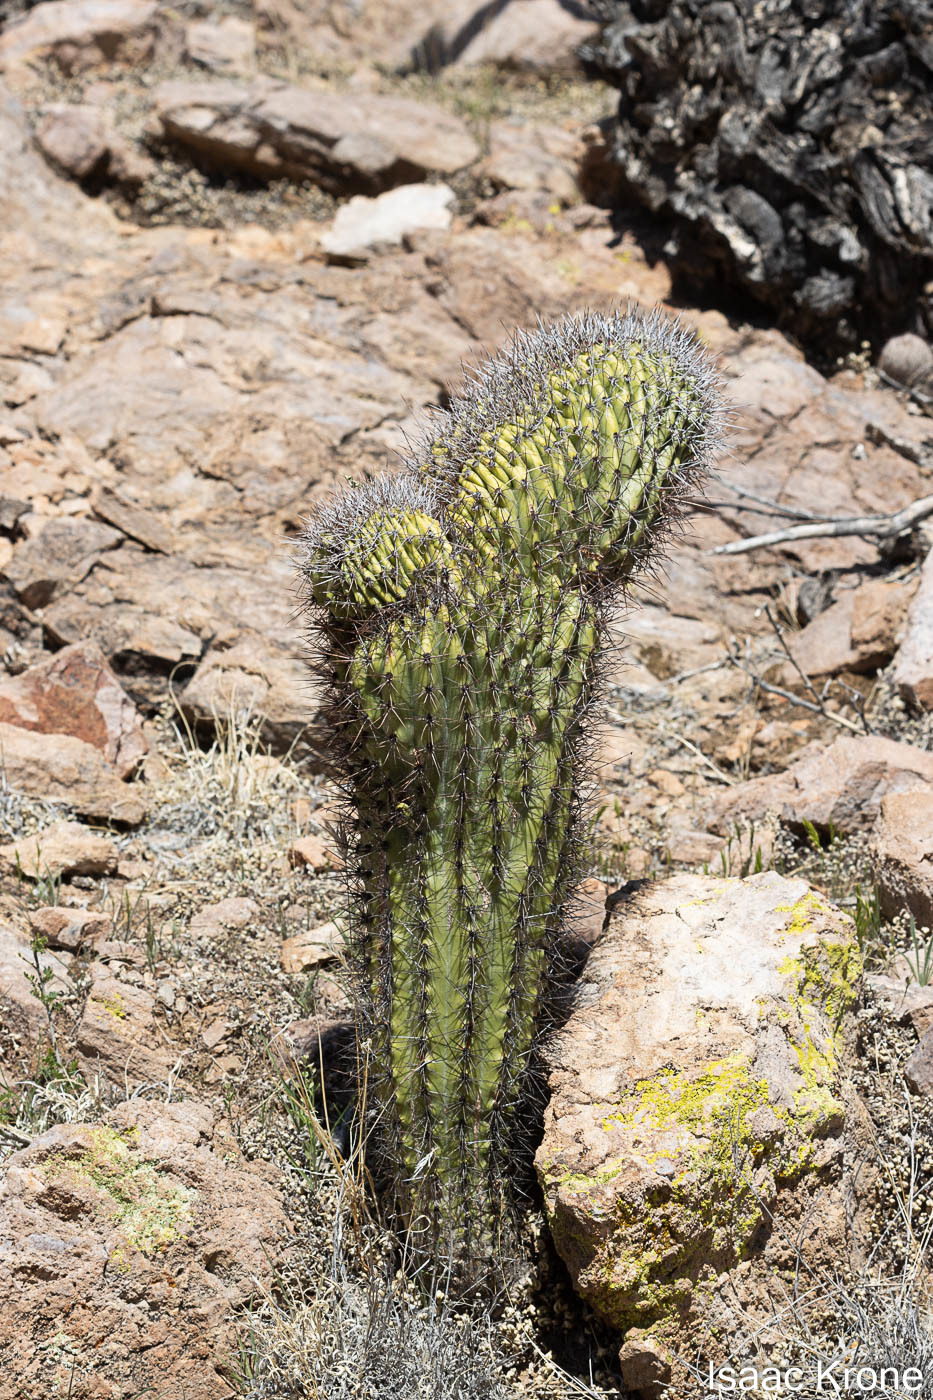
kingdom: Plantae
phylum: Tracheophyta
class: Magnoliopsida
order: Caryophyllales
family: Cactaceae
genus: Stenocereus
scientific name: Stenocereus thurberi
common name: Organ pipe cactus
